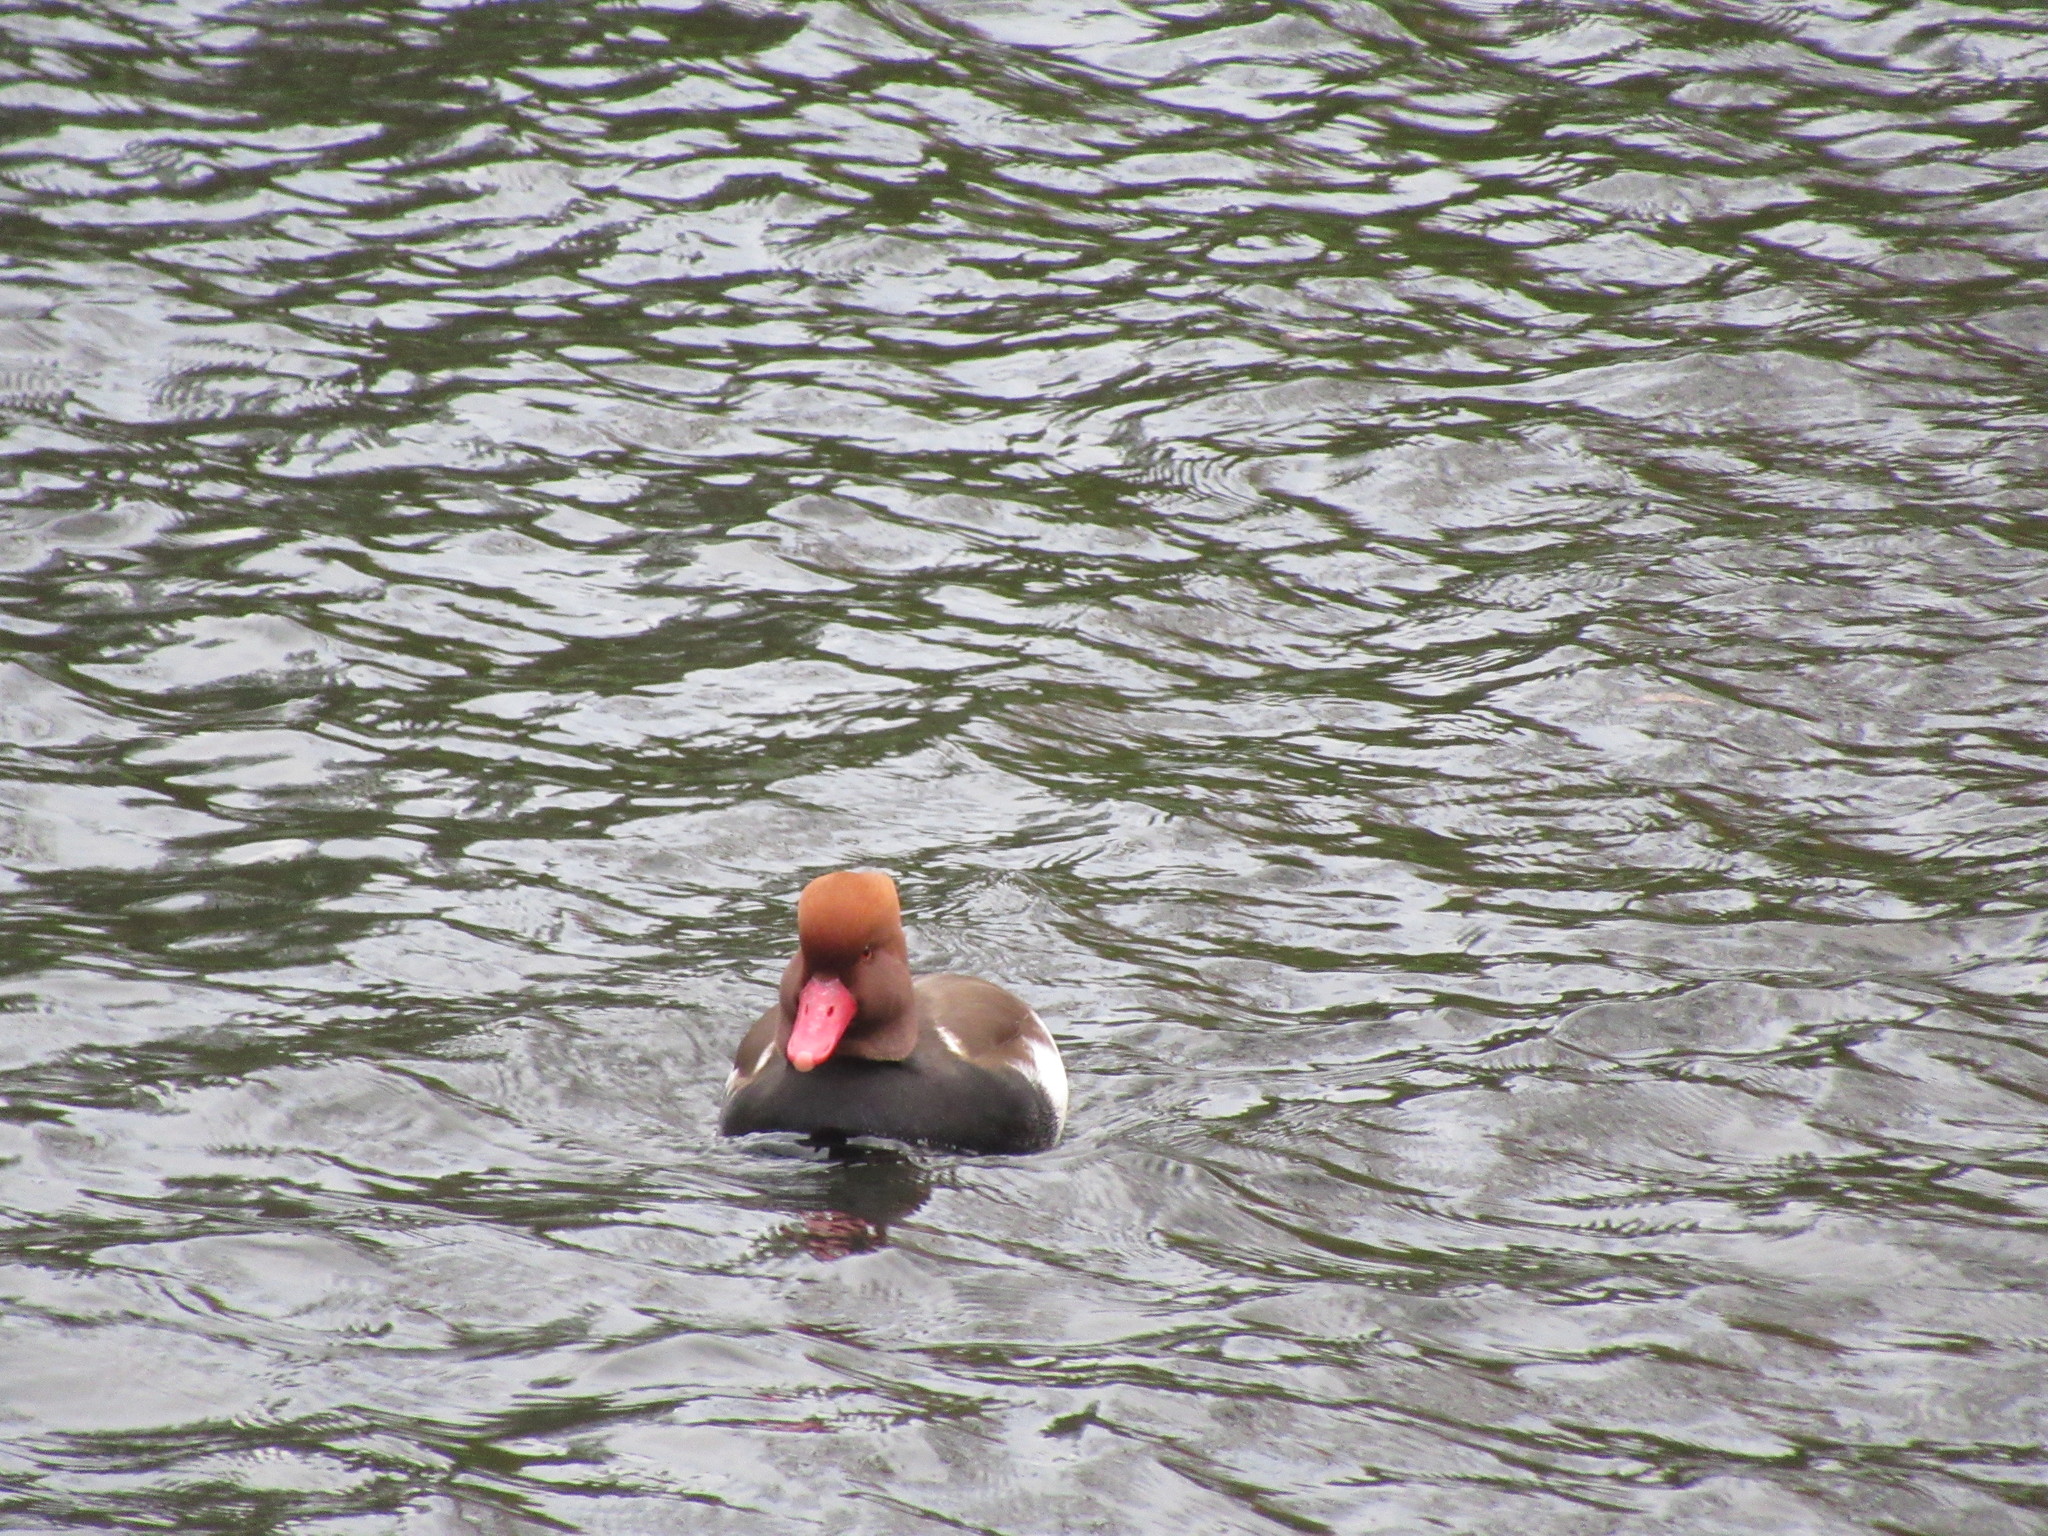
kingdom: Animalia
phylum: Chordata
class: Aves
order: Anseriformes
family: Anatidae
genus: Netta
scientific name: Netta rufina
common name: Red-crested pochard
